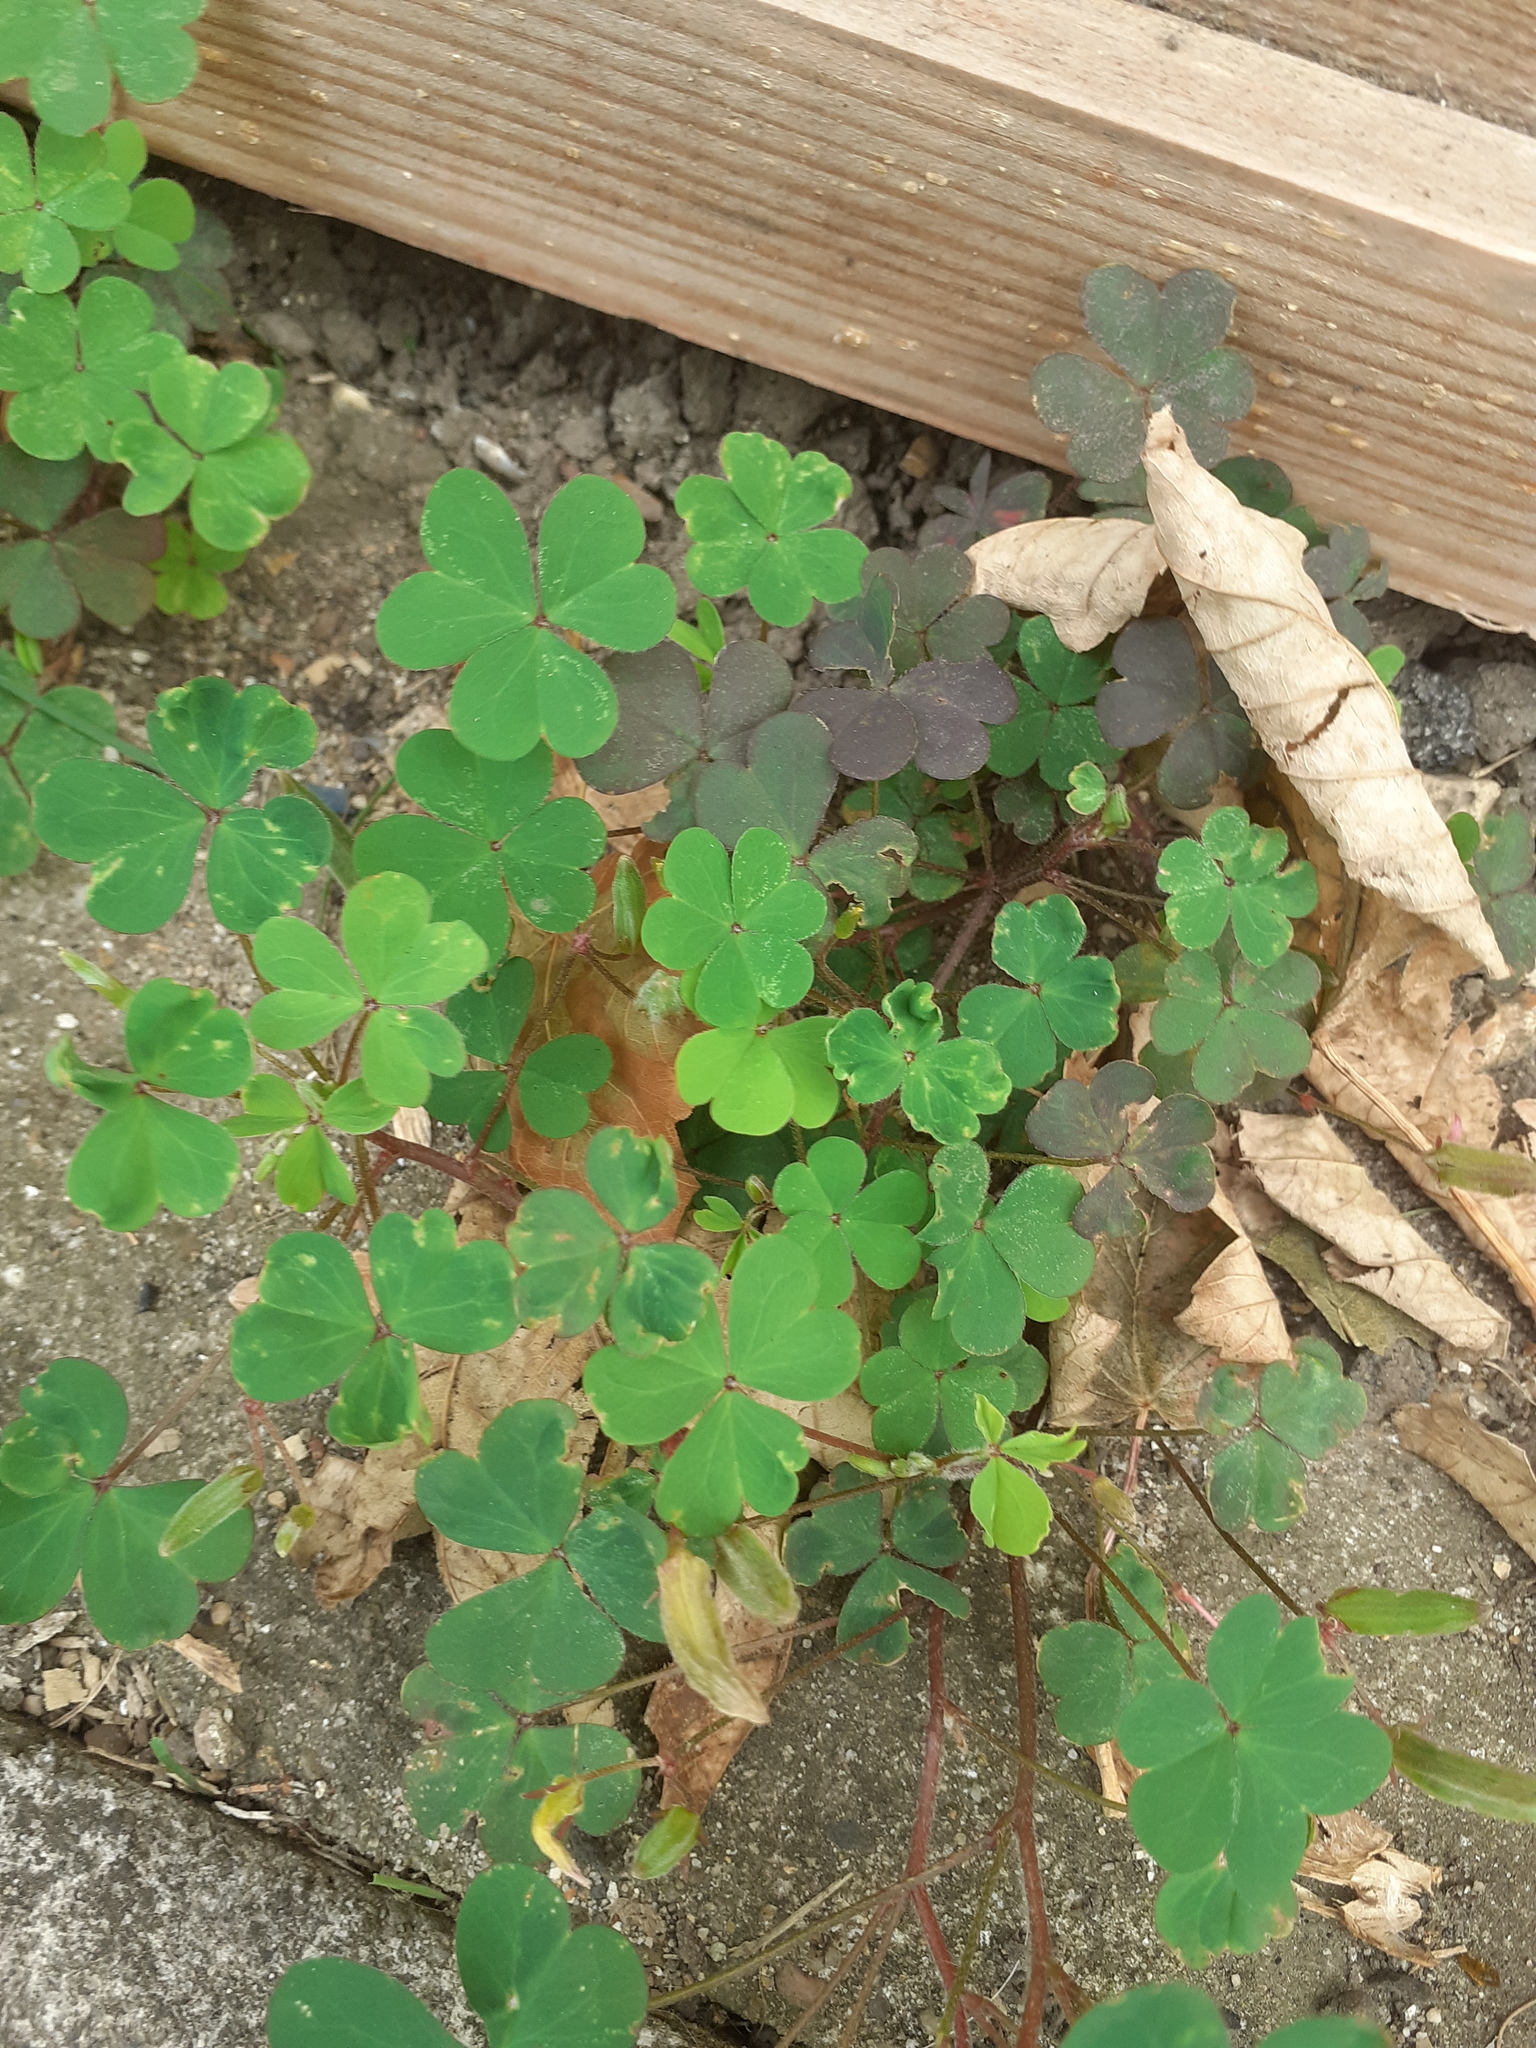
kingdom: Plantae
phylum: Tracheophyta
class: Magnoliopsida
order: Oxalidales
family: Oxalidaceae
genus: Oxalis
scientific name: Oxalis corniculata
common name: Procumbent yellow-sorrel
